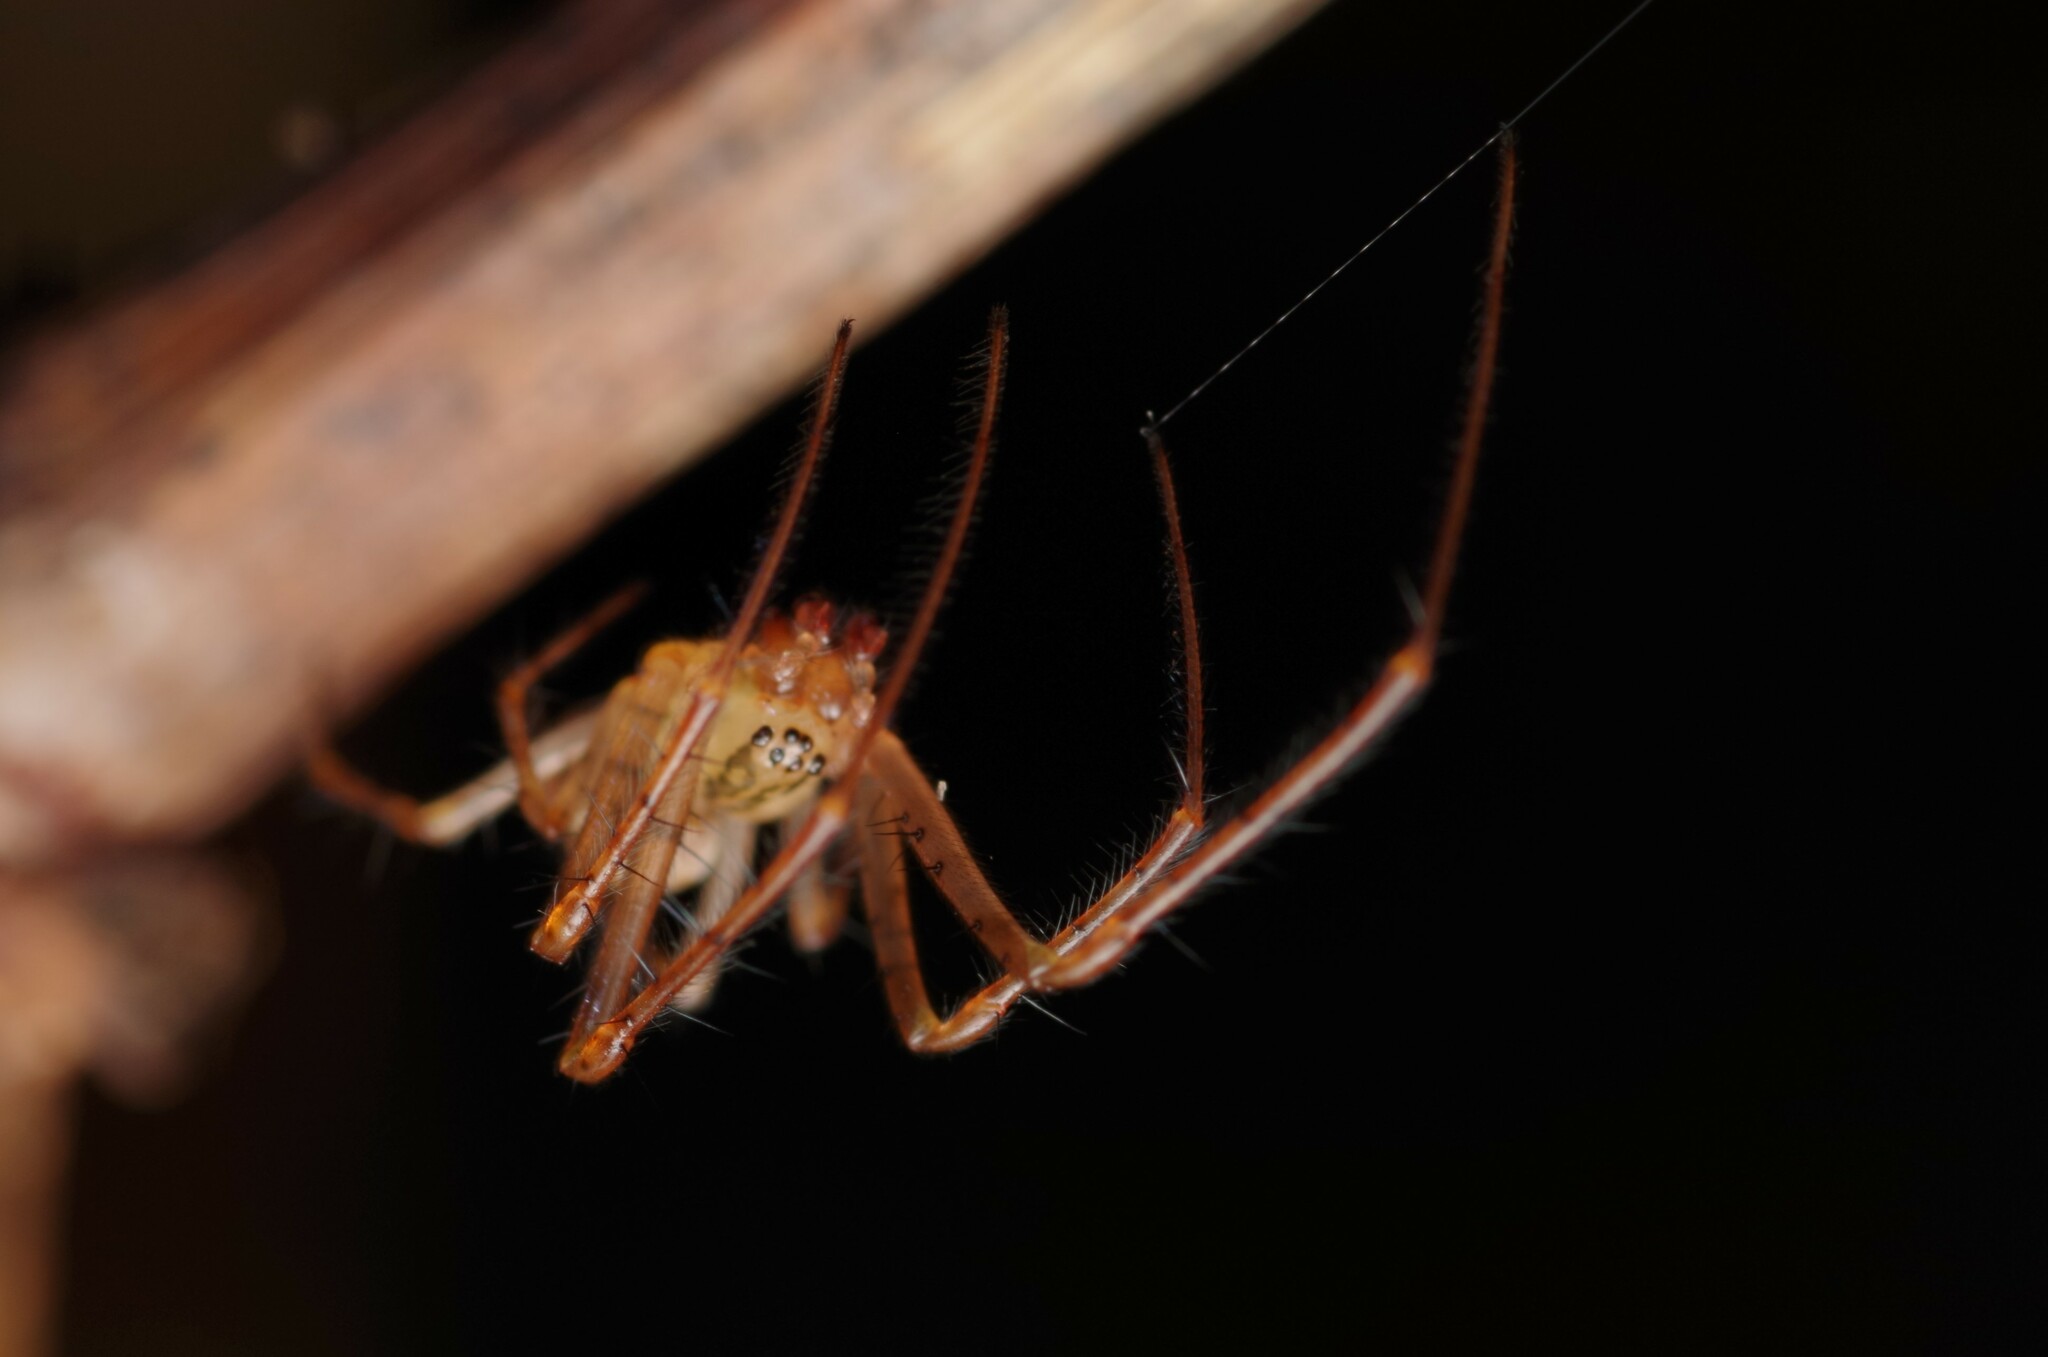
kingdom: Animalia
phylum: Arthropoda
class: Arachnida
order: Araneae
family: Tetragnathidae
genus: Metellina
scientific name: Metellina mengei
